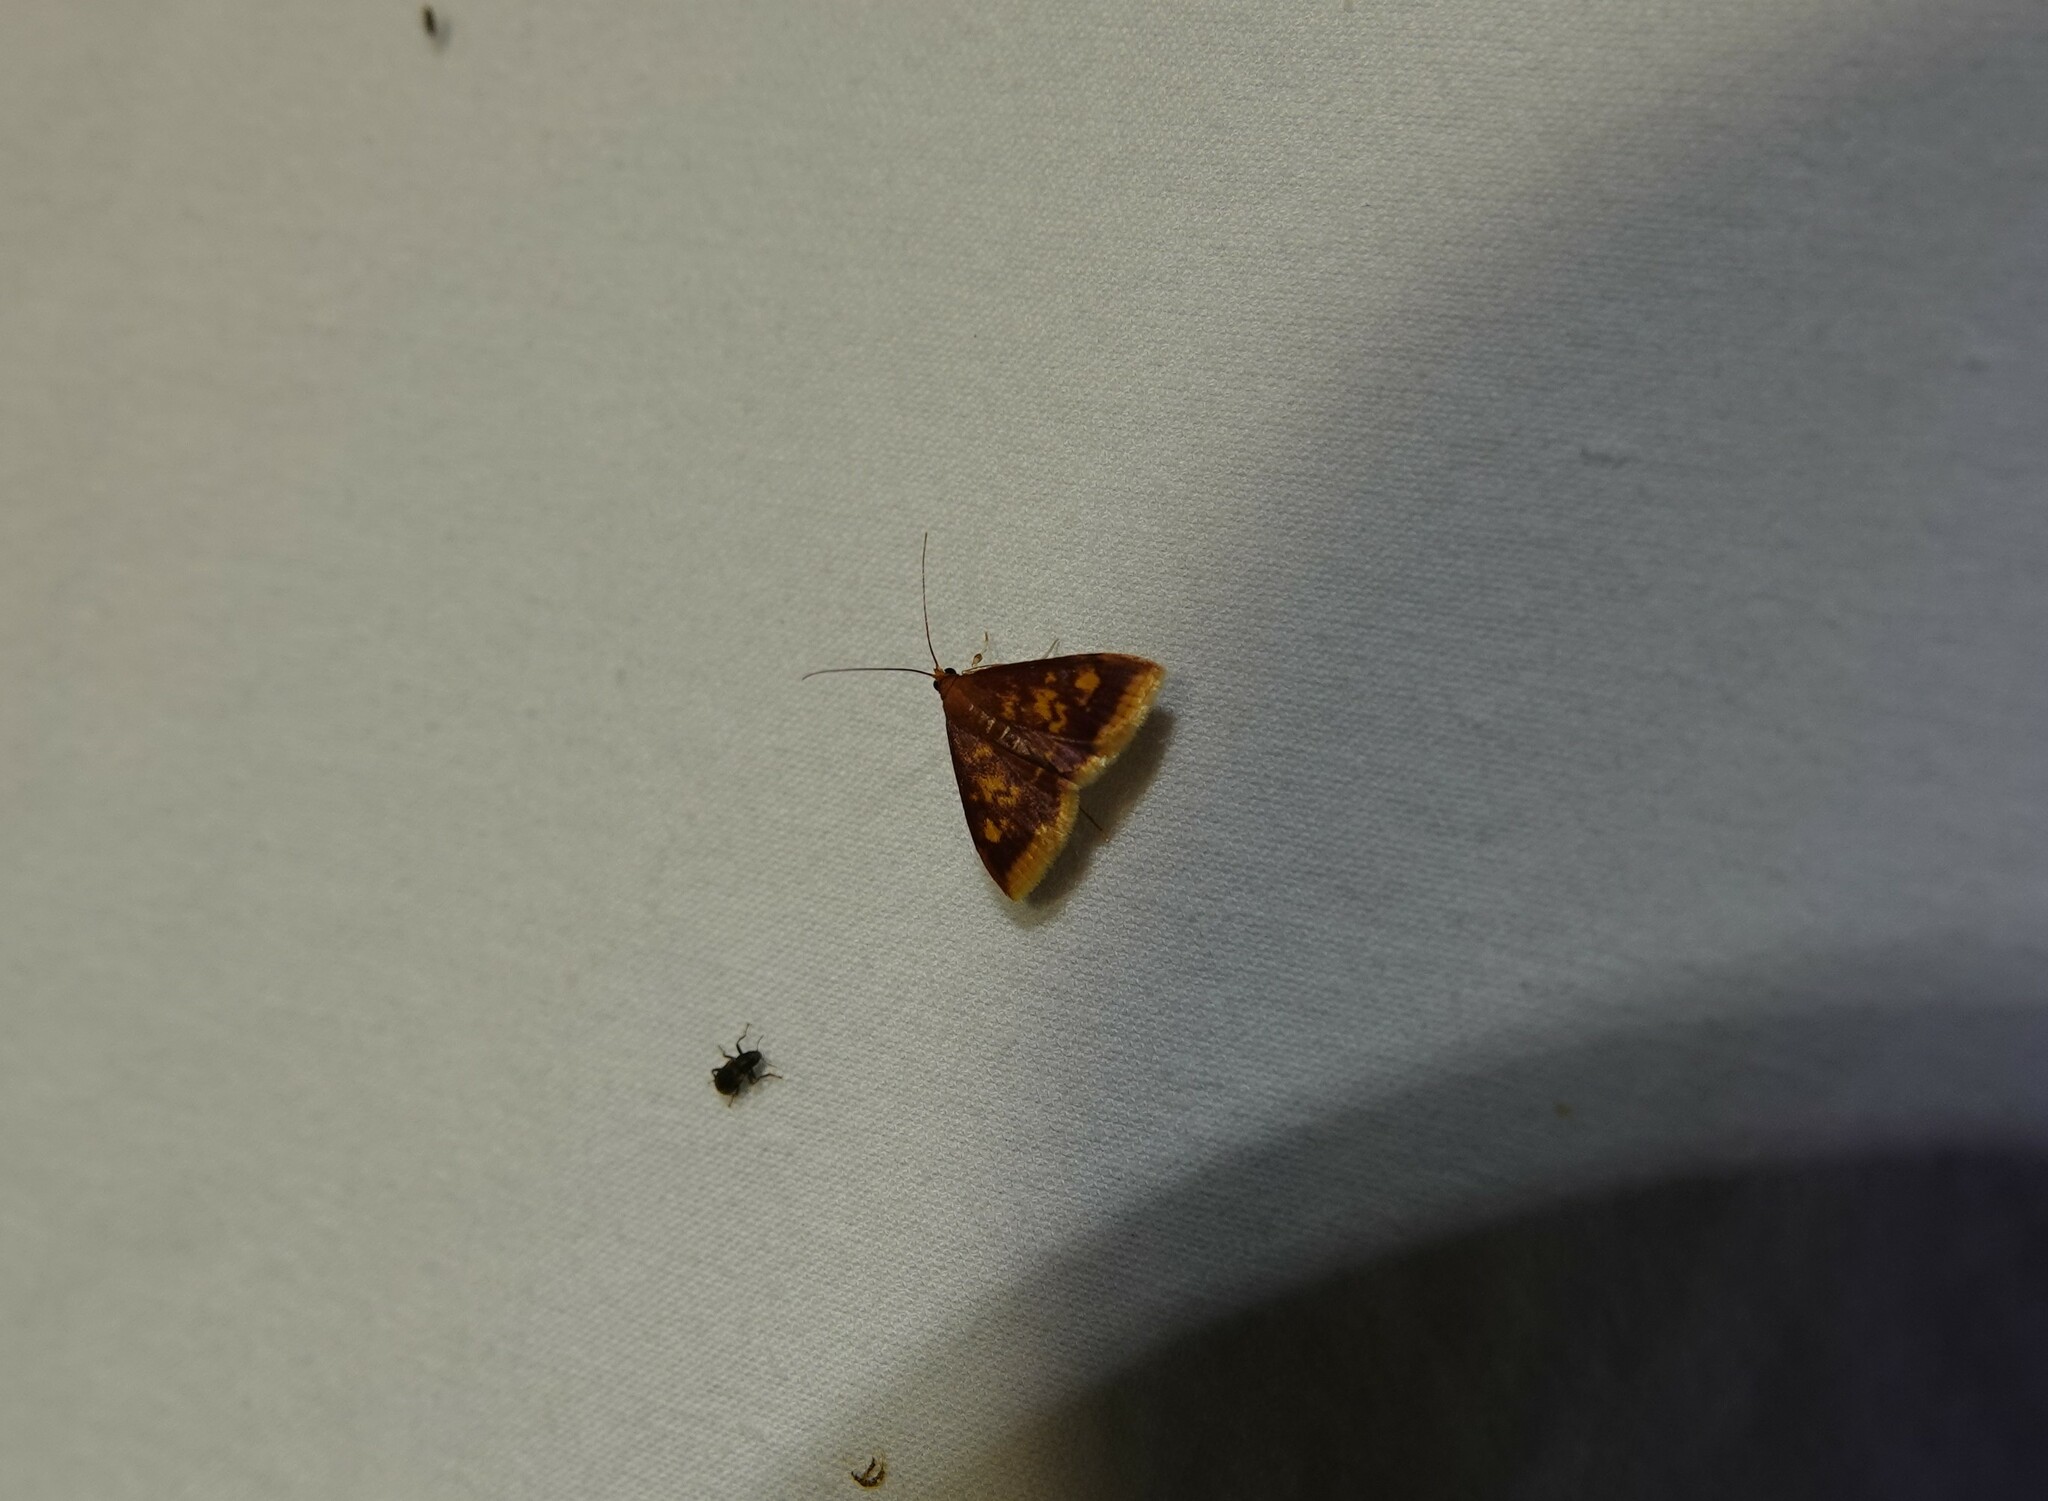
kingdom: Animalia
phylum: Arthropoda
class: Insecta
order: Lepidoptera
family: Crambidae
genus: Pyrausta
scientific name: Pyrausta acrionalis
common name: Mint-loving pyrausta moth
